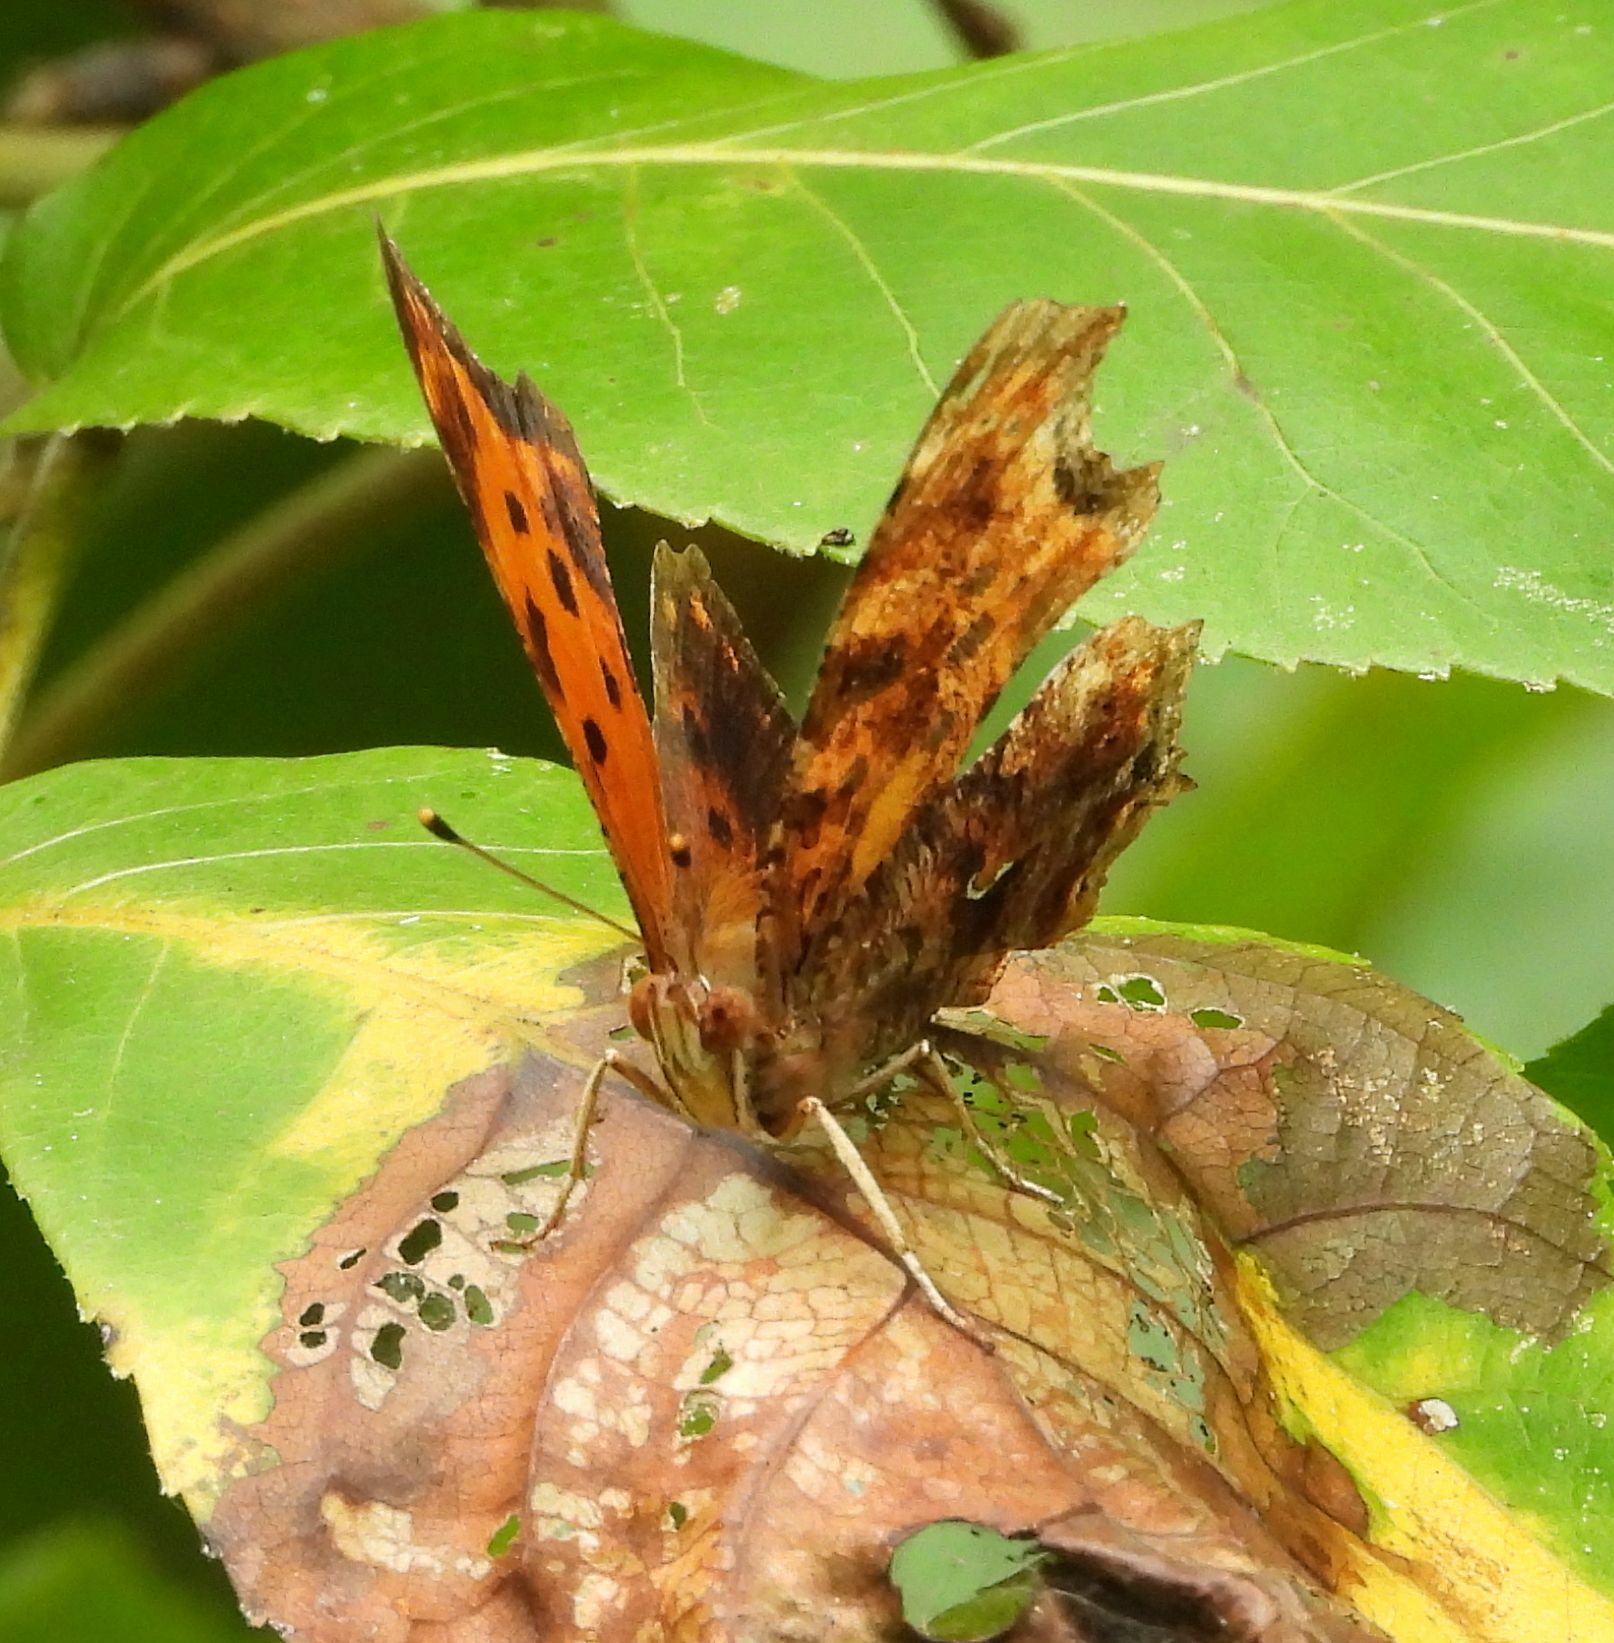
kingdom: Animalia
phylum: Arthropoda
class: Insecta
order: Lepidoptera
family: Nymphalidae
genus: Polygonia
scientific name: Polygonia comma
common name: Eastern comma
